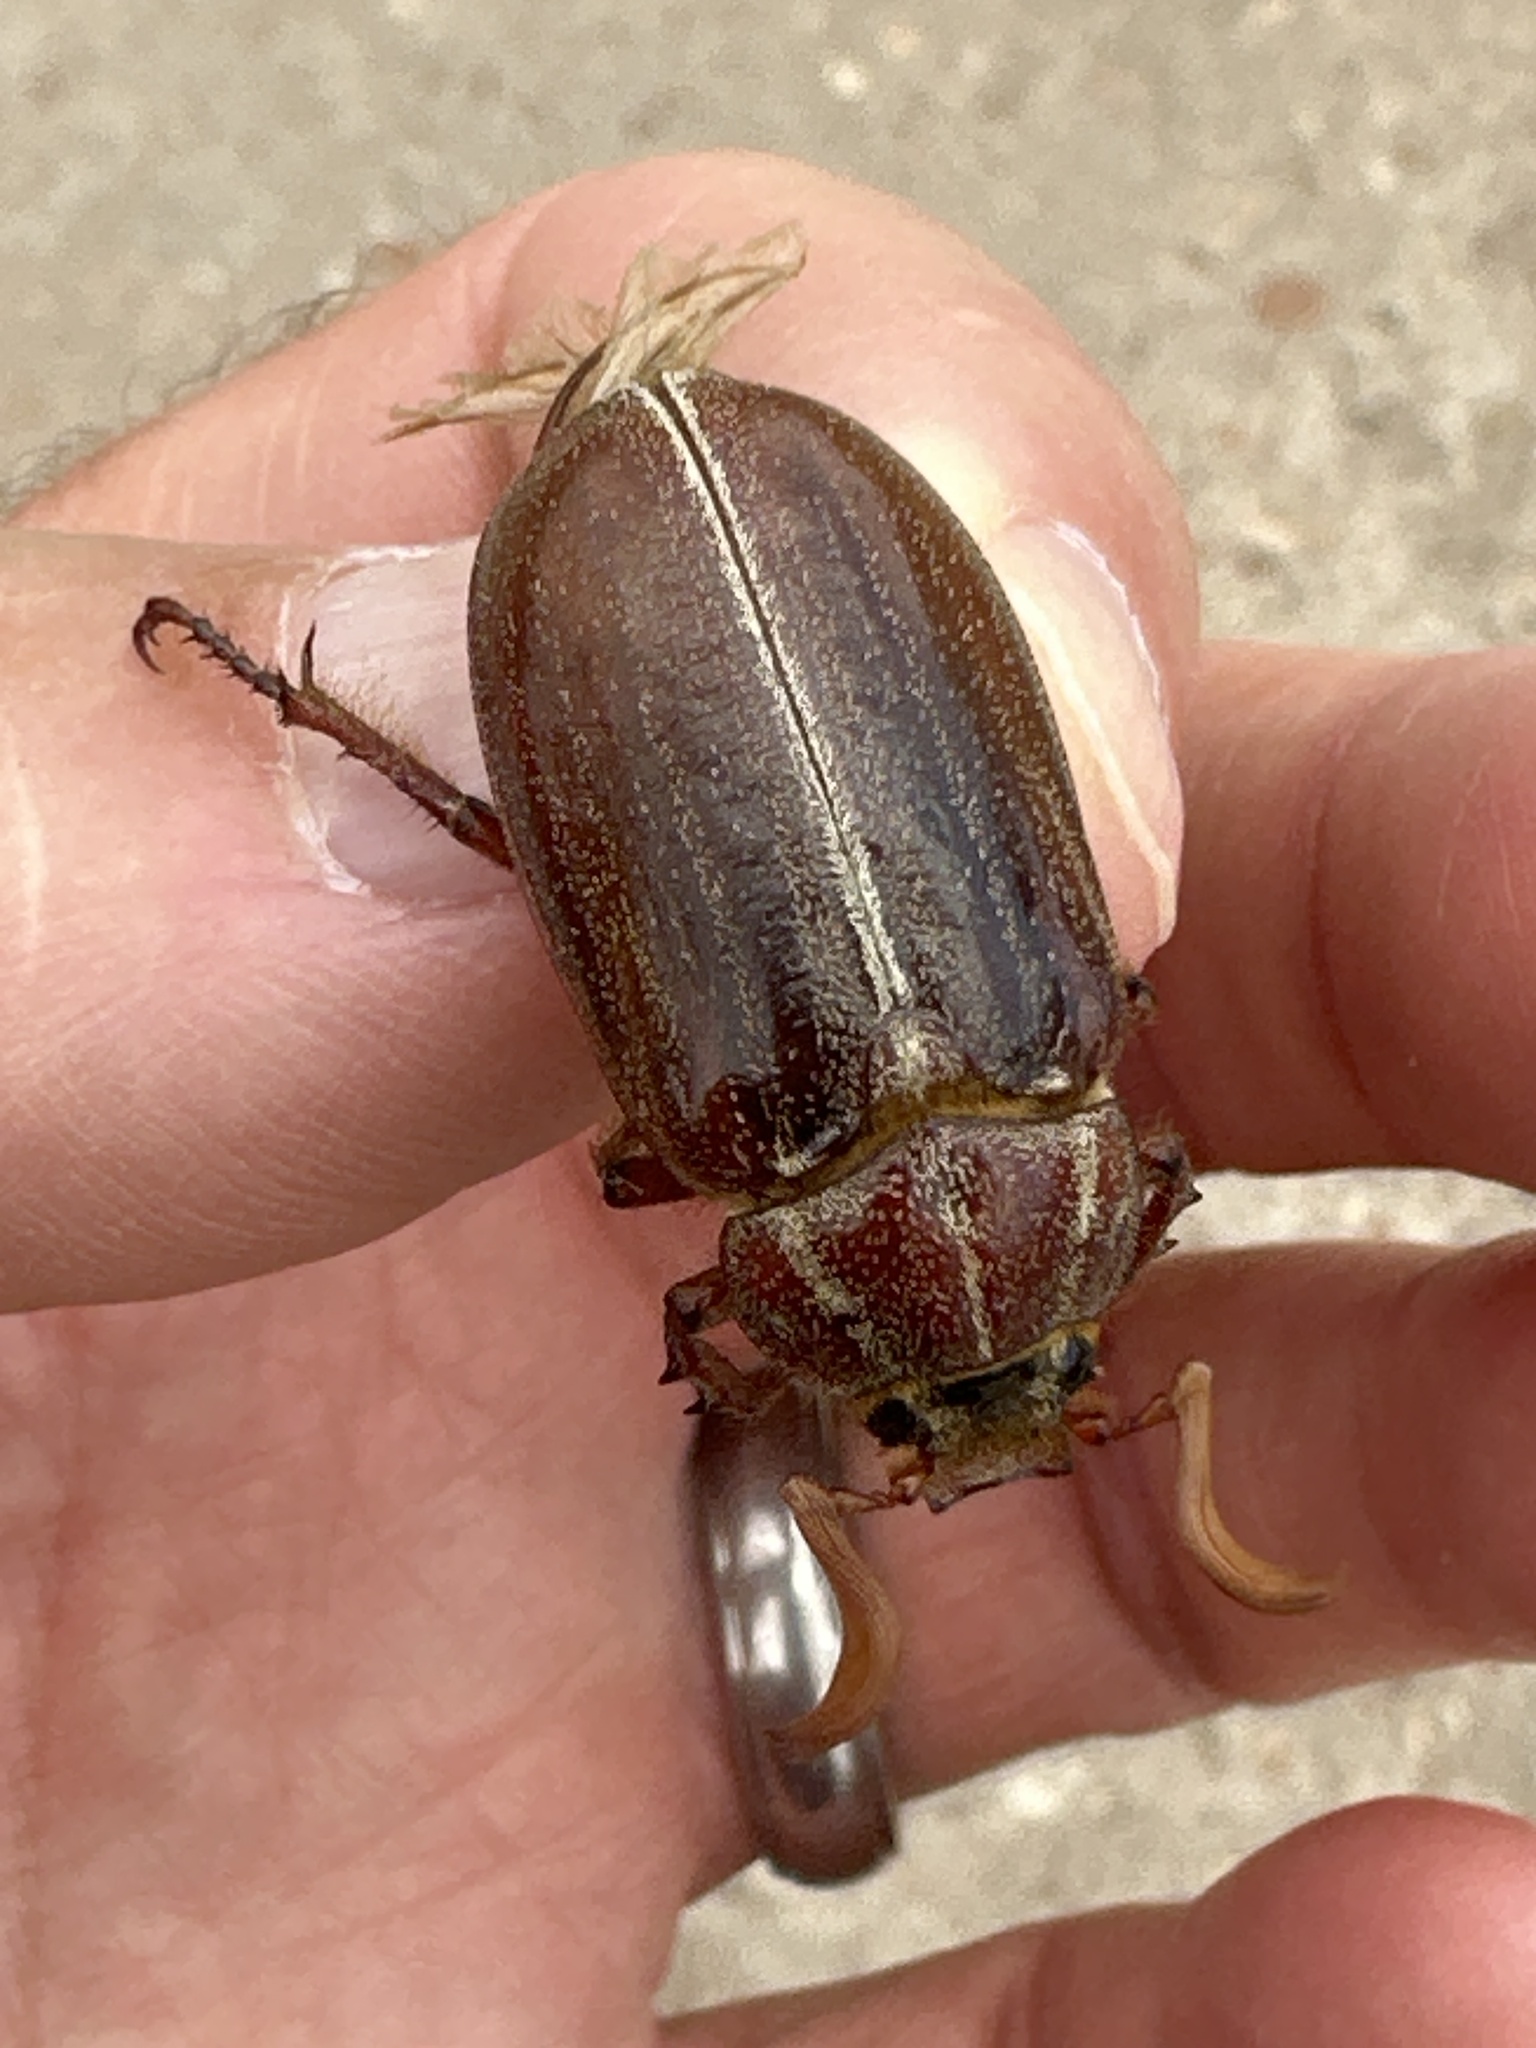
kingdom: Animalia
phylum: Arthropoda
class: Insecta
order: Coleoptera
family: Scarabaeidae
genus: Polyphylla
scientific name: Polyphylla hammondi
